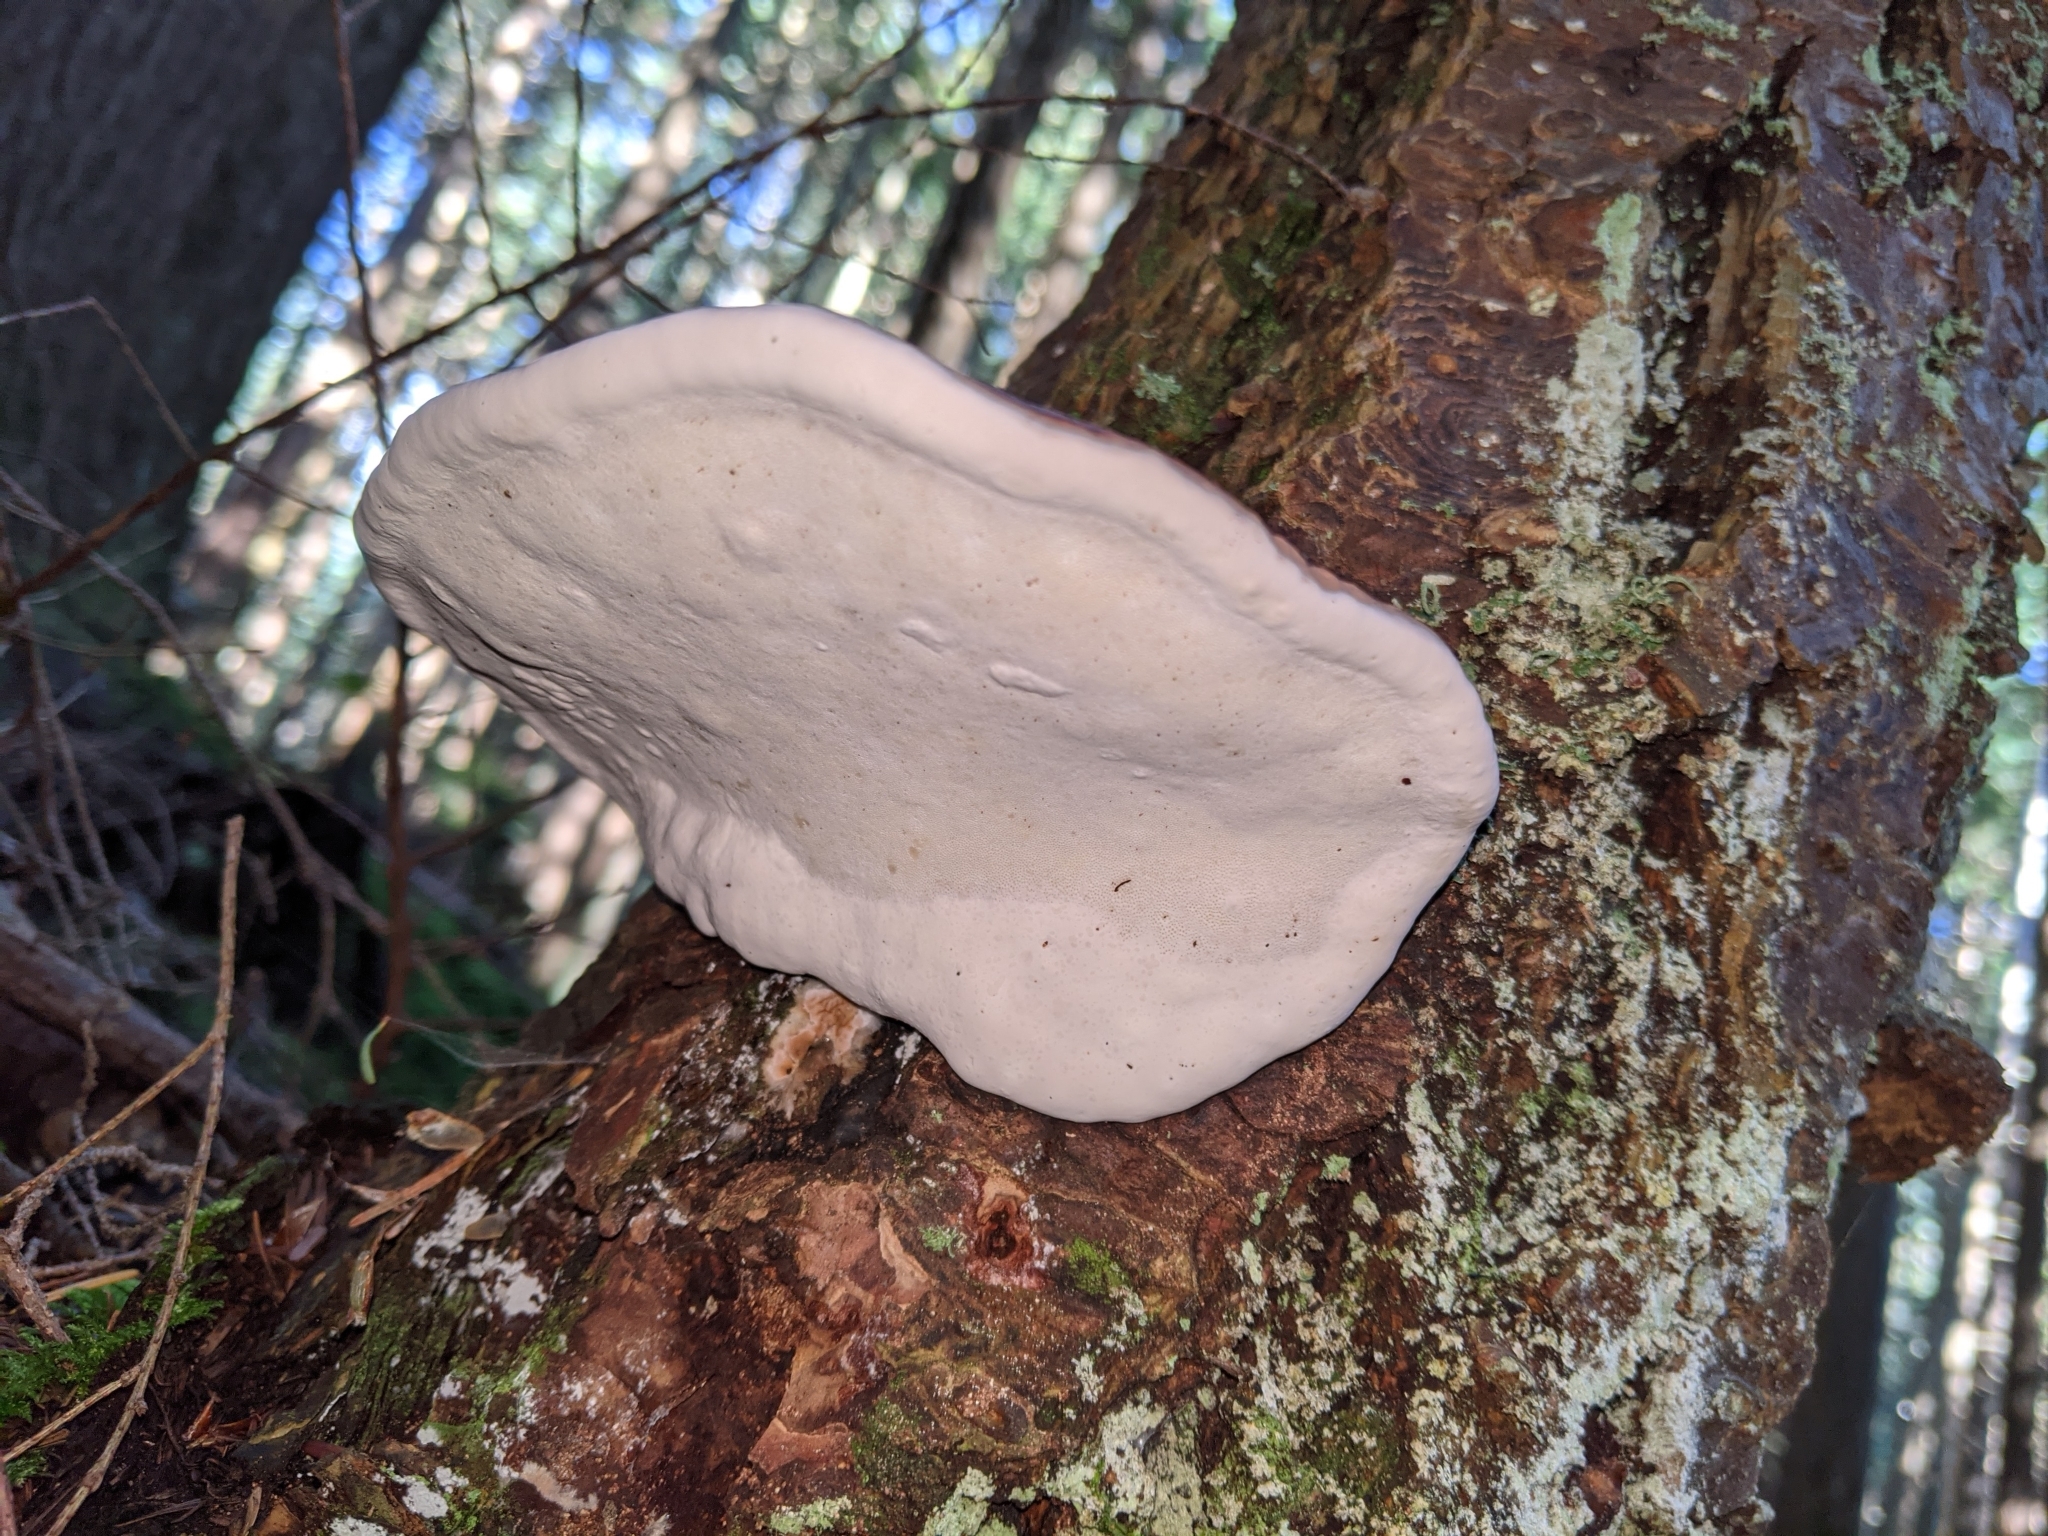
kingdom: Fungi
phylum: Basidiomycota
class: Agaricomycetes
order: Polyporales
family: Fomitopsidaceae
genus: Fomitopsis
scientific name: Fomitopsis mounceae
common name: Northern red belt
